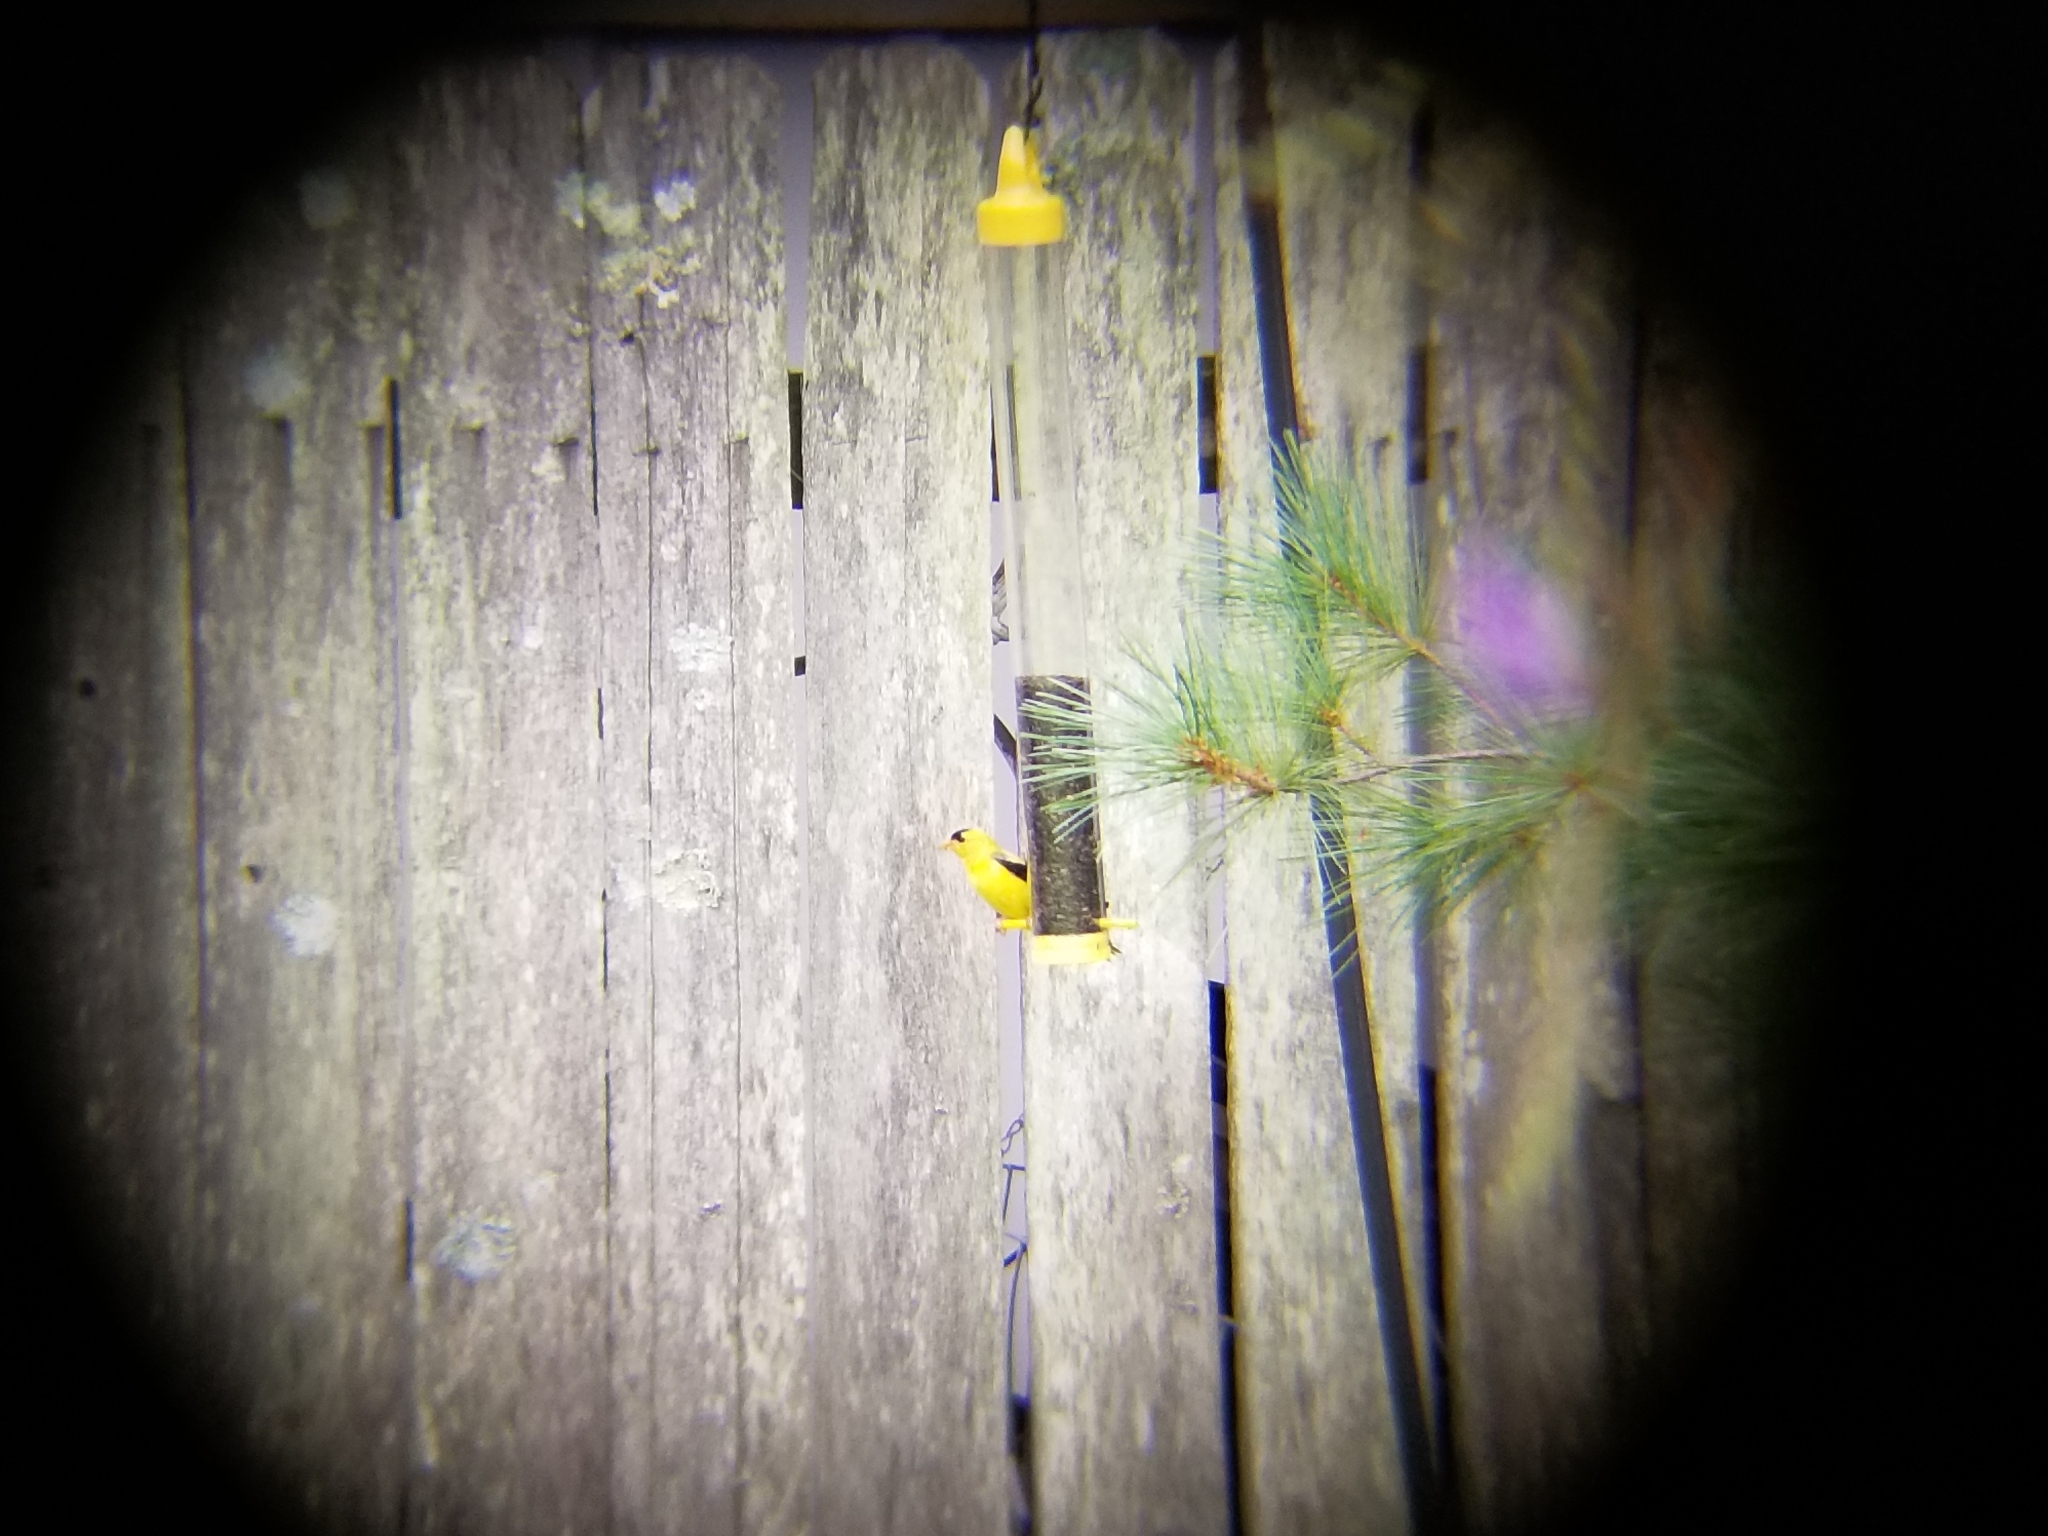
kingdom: Animalia
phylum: Chordata
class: Aves
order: Passeriformes
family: Fringillidae
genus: Spinus
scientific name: Spinus tristis
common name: American goldfinch
